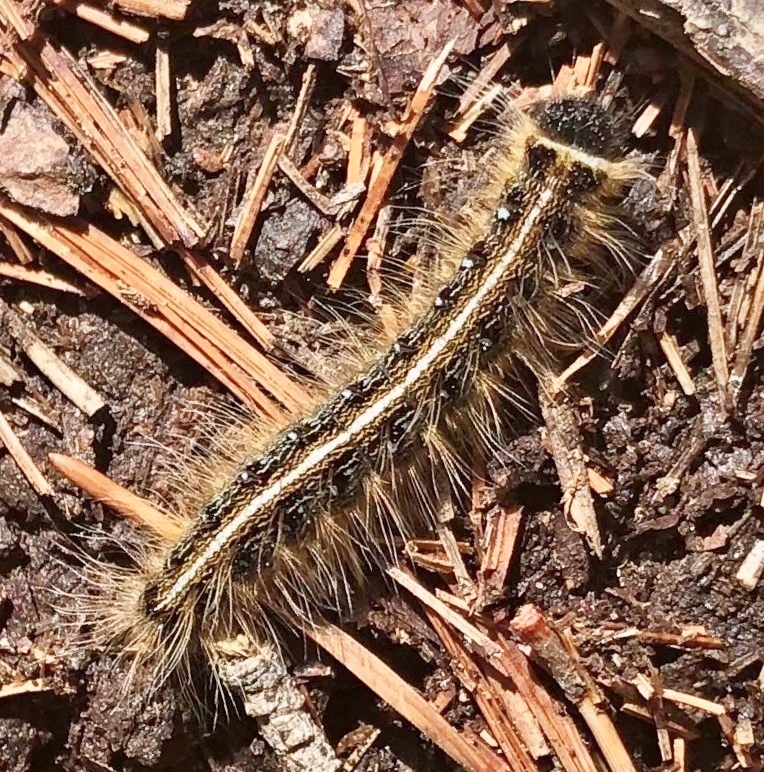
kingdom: Animalia
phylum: Arthropoda
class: Insecta
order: Lepidoptera
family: Lasiocampidae
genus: Malacosoma
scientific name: Malacosoma americana
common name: Eastern tent caterpillar moth
